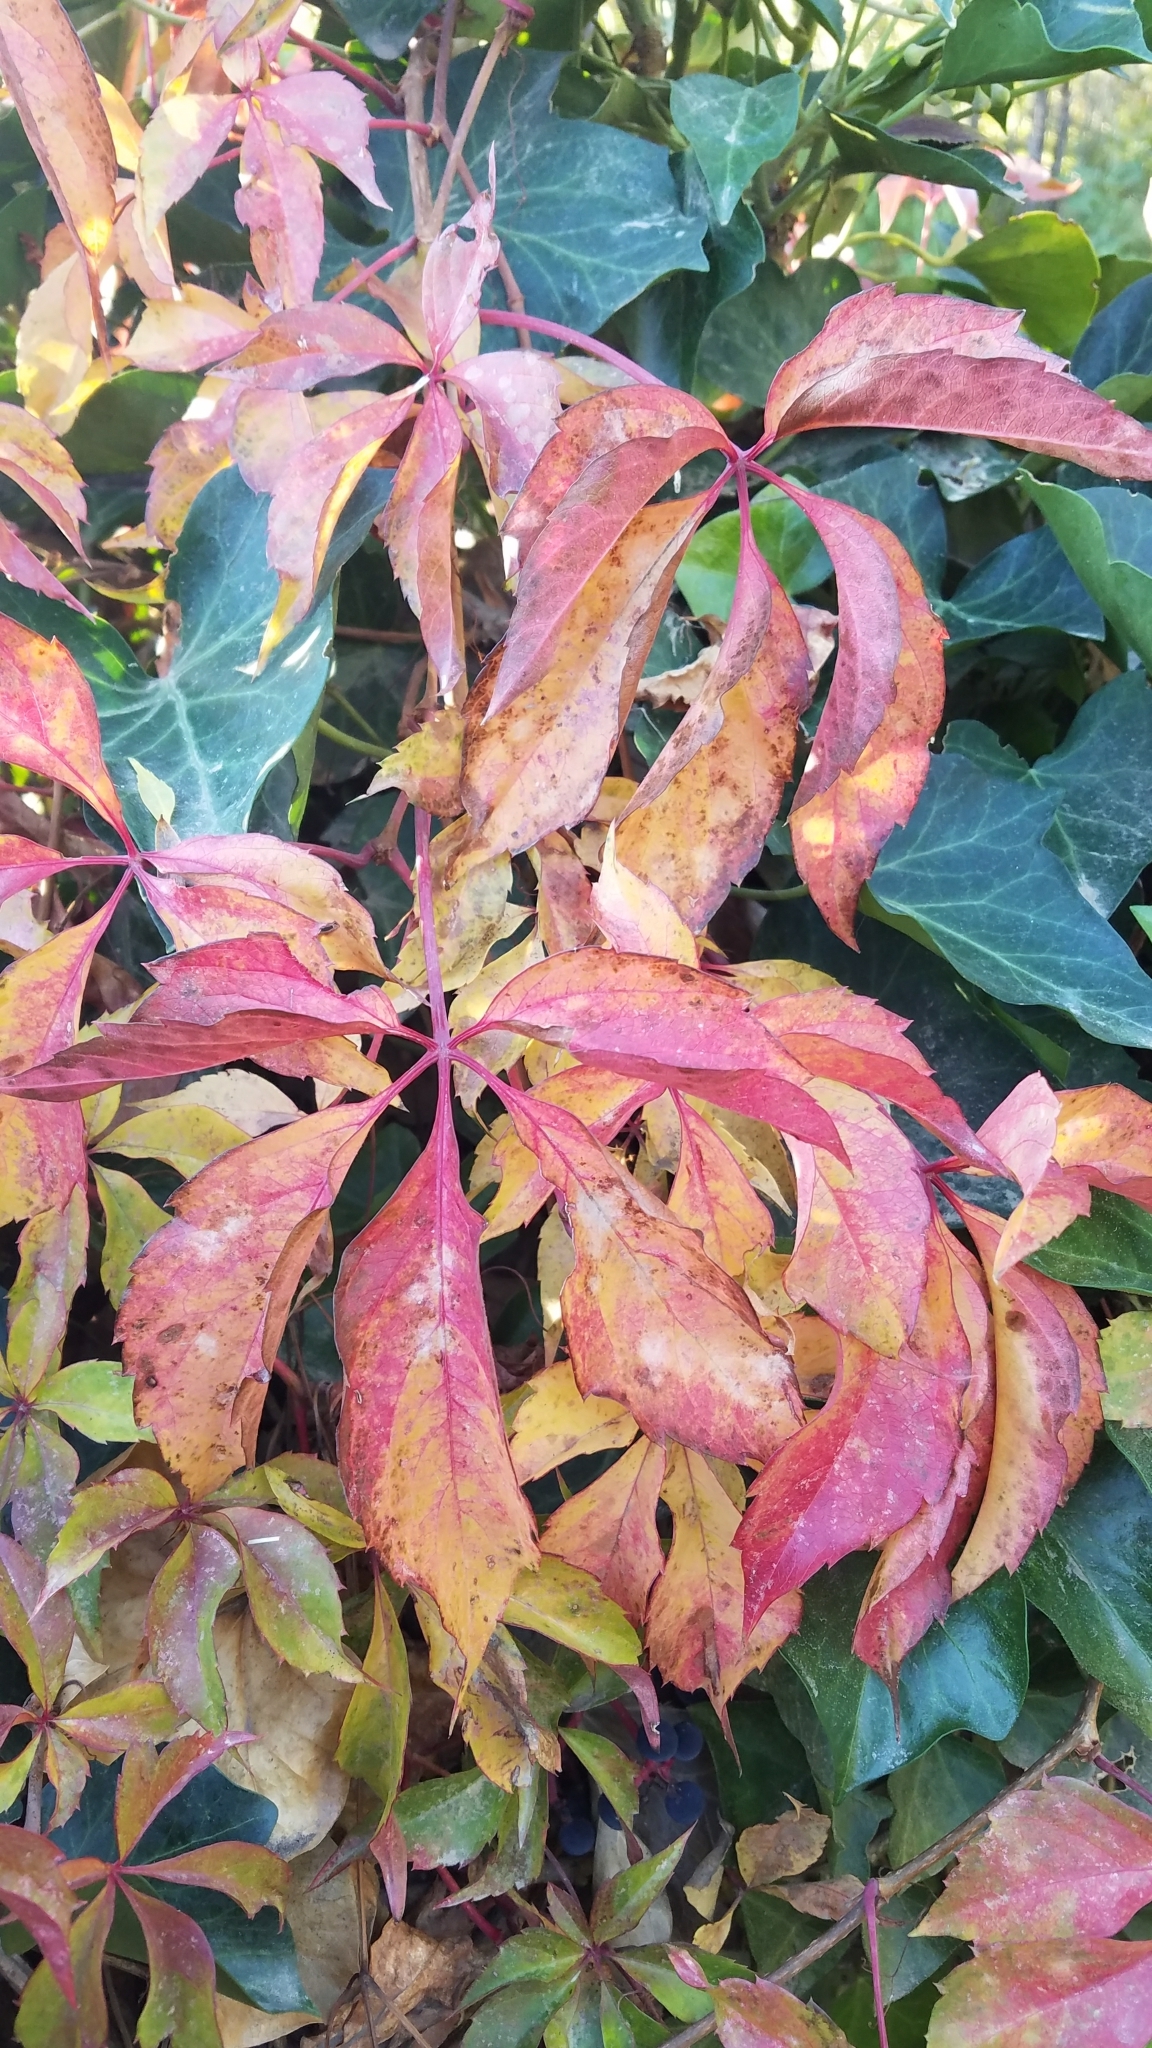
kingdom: Plantae
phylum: Tracheophyta
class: Magnoliopsida
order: Vitales
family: Vitaceae
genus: Parthenocissus
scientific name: Parthenocissus quinquefolia
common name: Virginia-creeper
